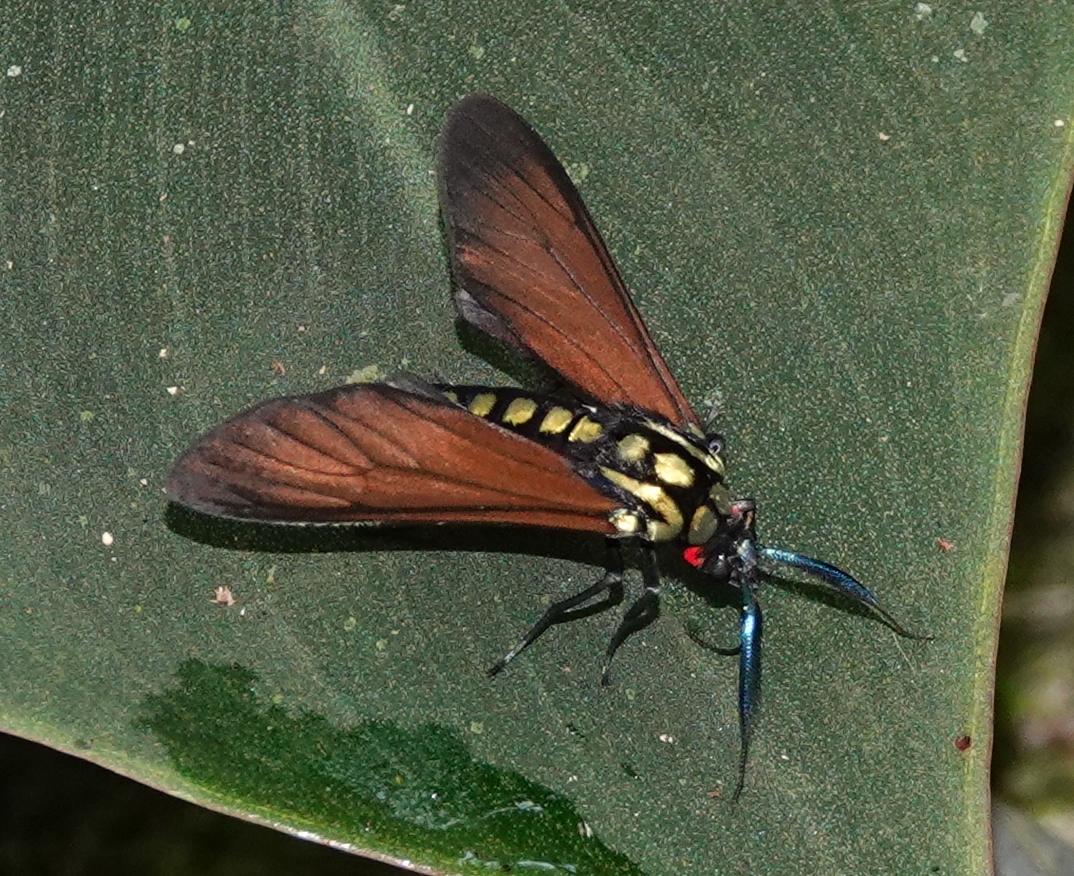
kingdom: Animalia
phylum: Arthropoda
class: Insecta
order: Lepidoptera
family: Erebidae
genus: Eriphioides
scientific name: Eriphioides fastidiosa
